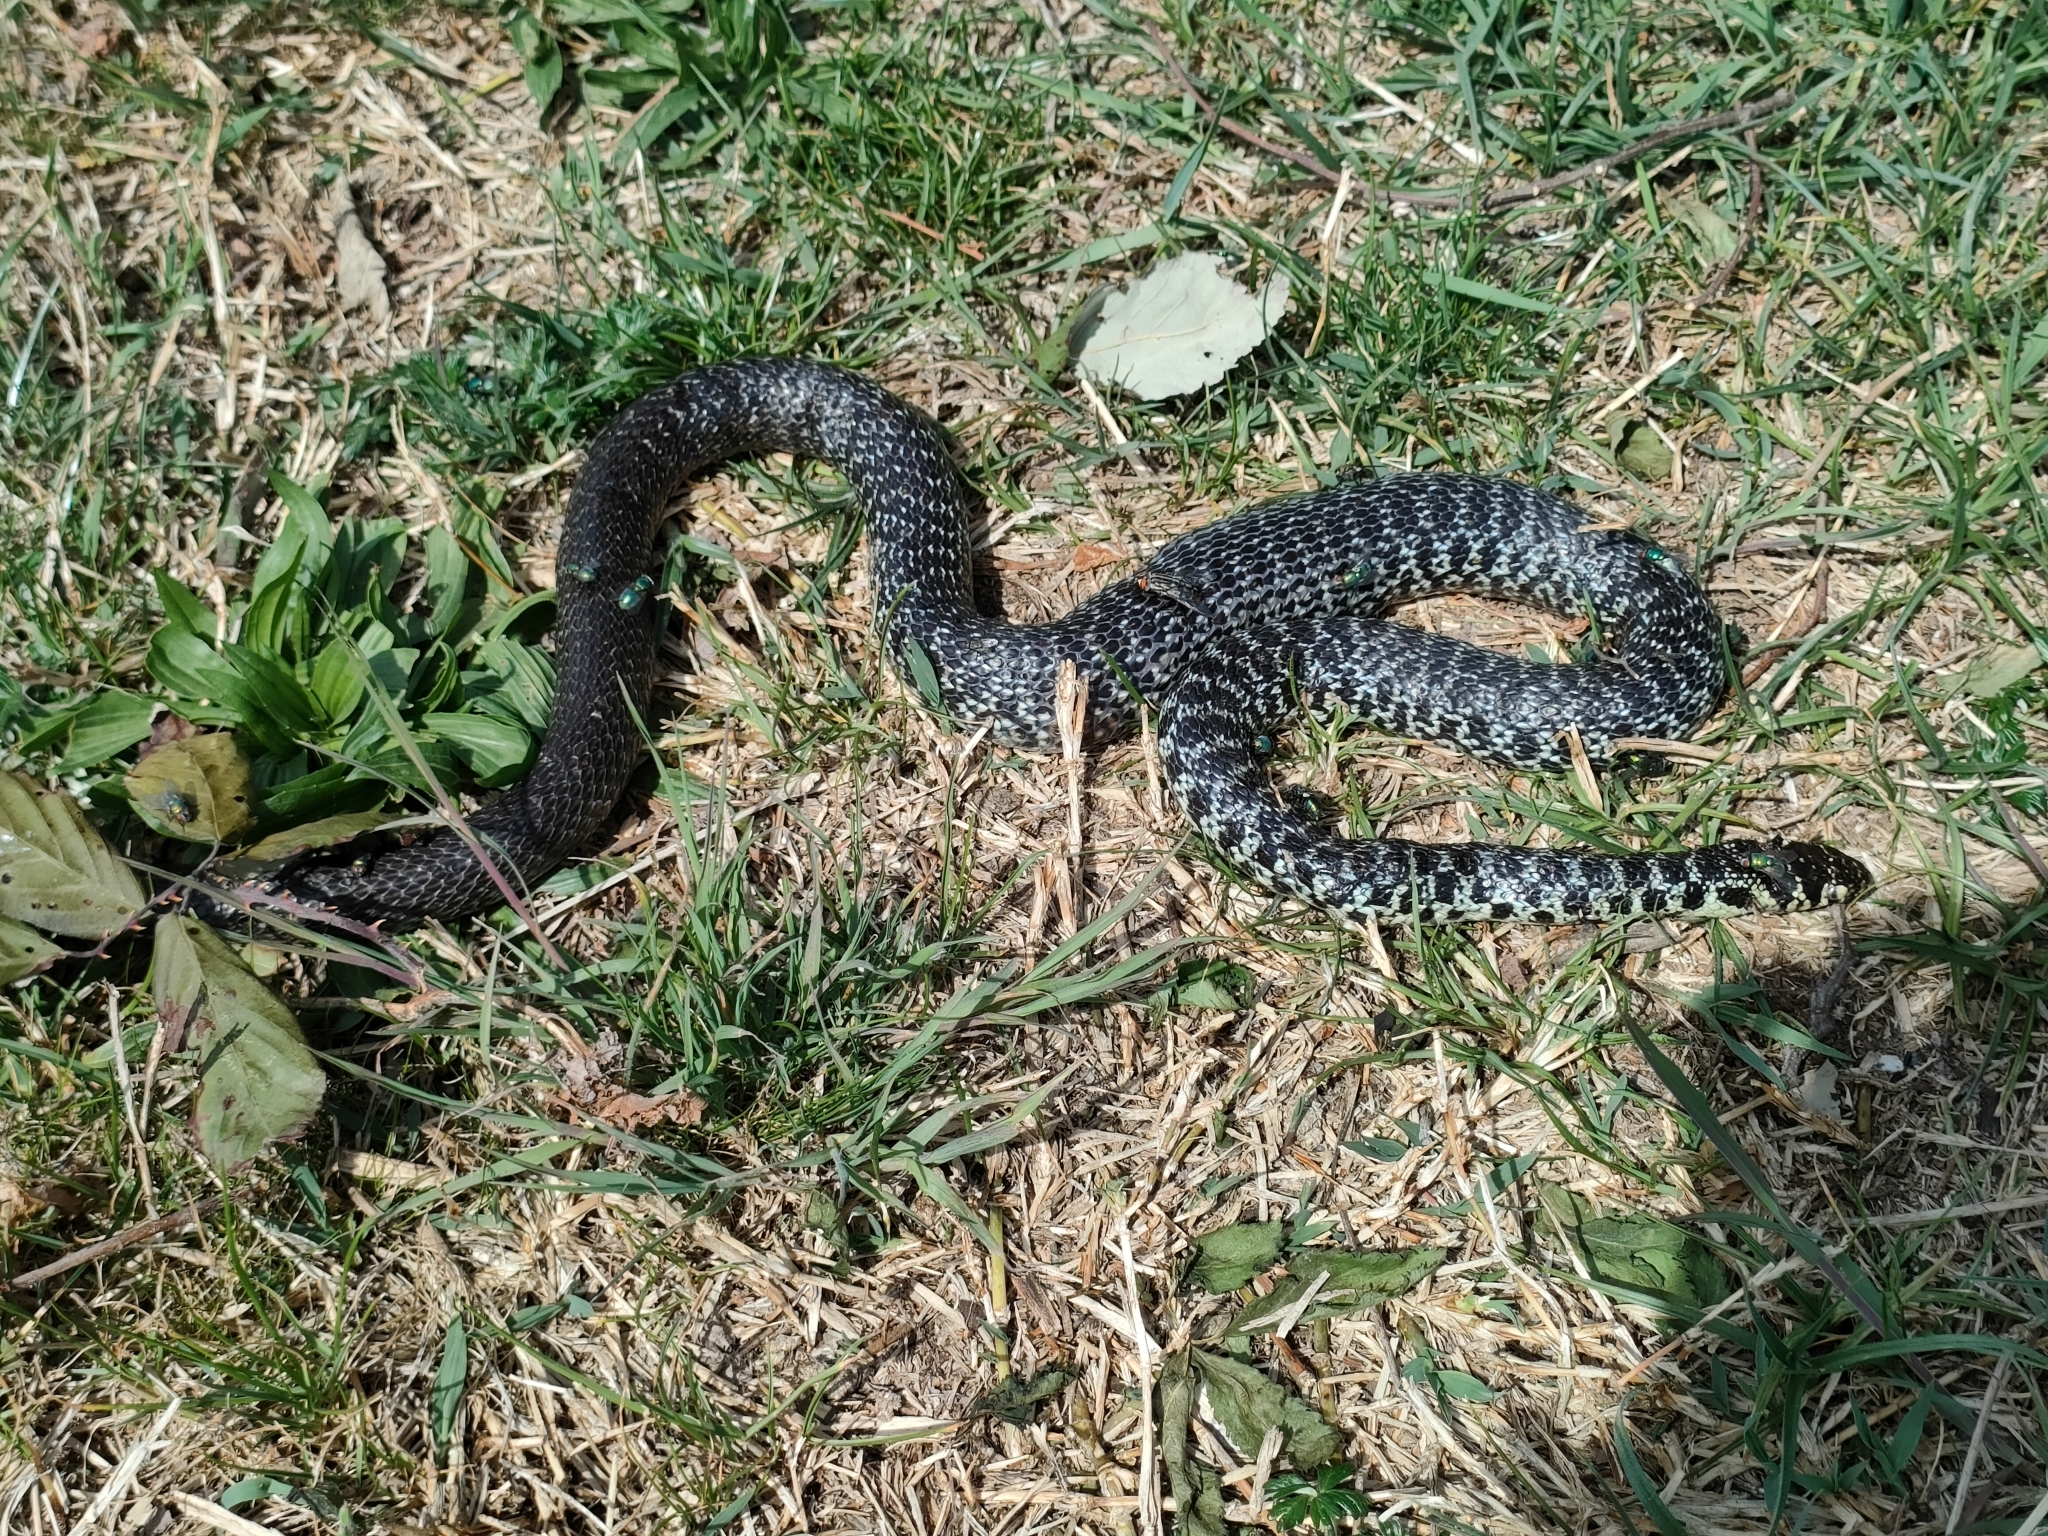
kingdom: Animalia
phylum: Chordata
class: Squamata
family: Colubridae
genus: Hierophis
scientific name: Hierophis viridiflavus
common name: Green whip snake
